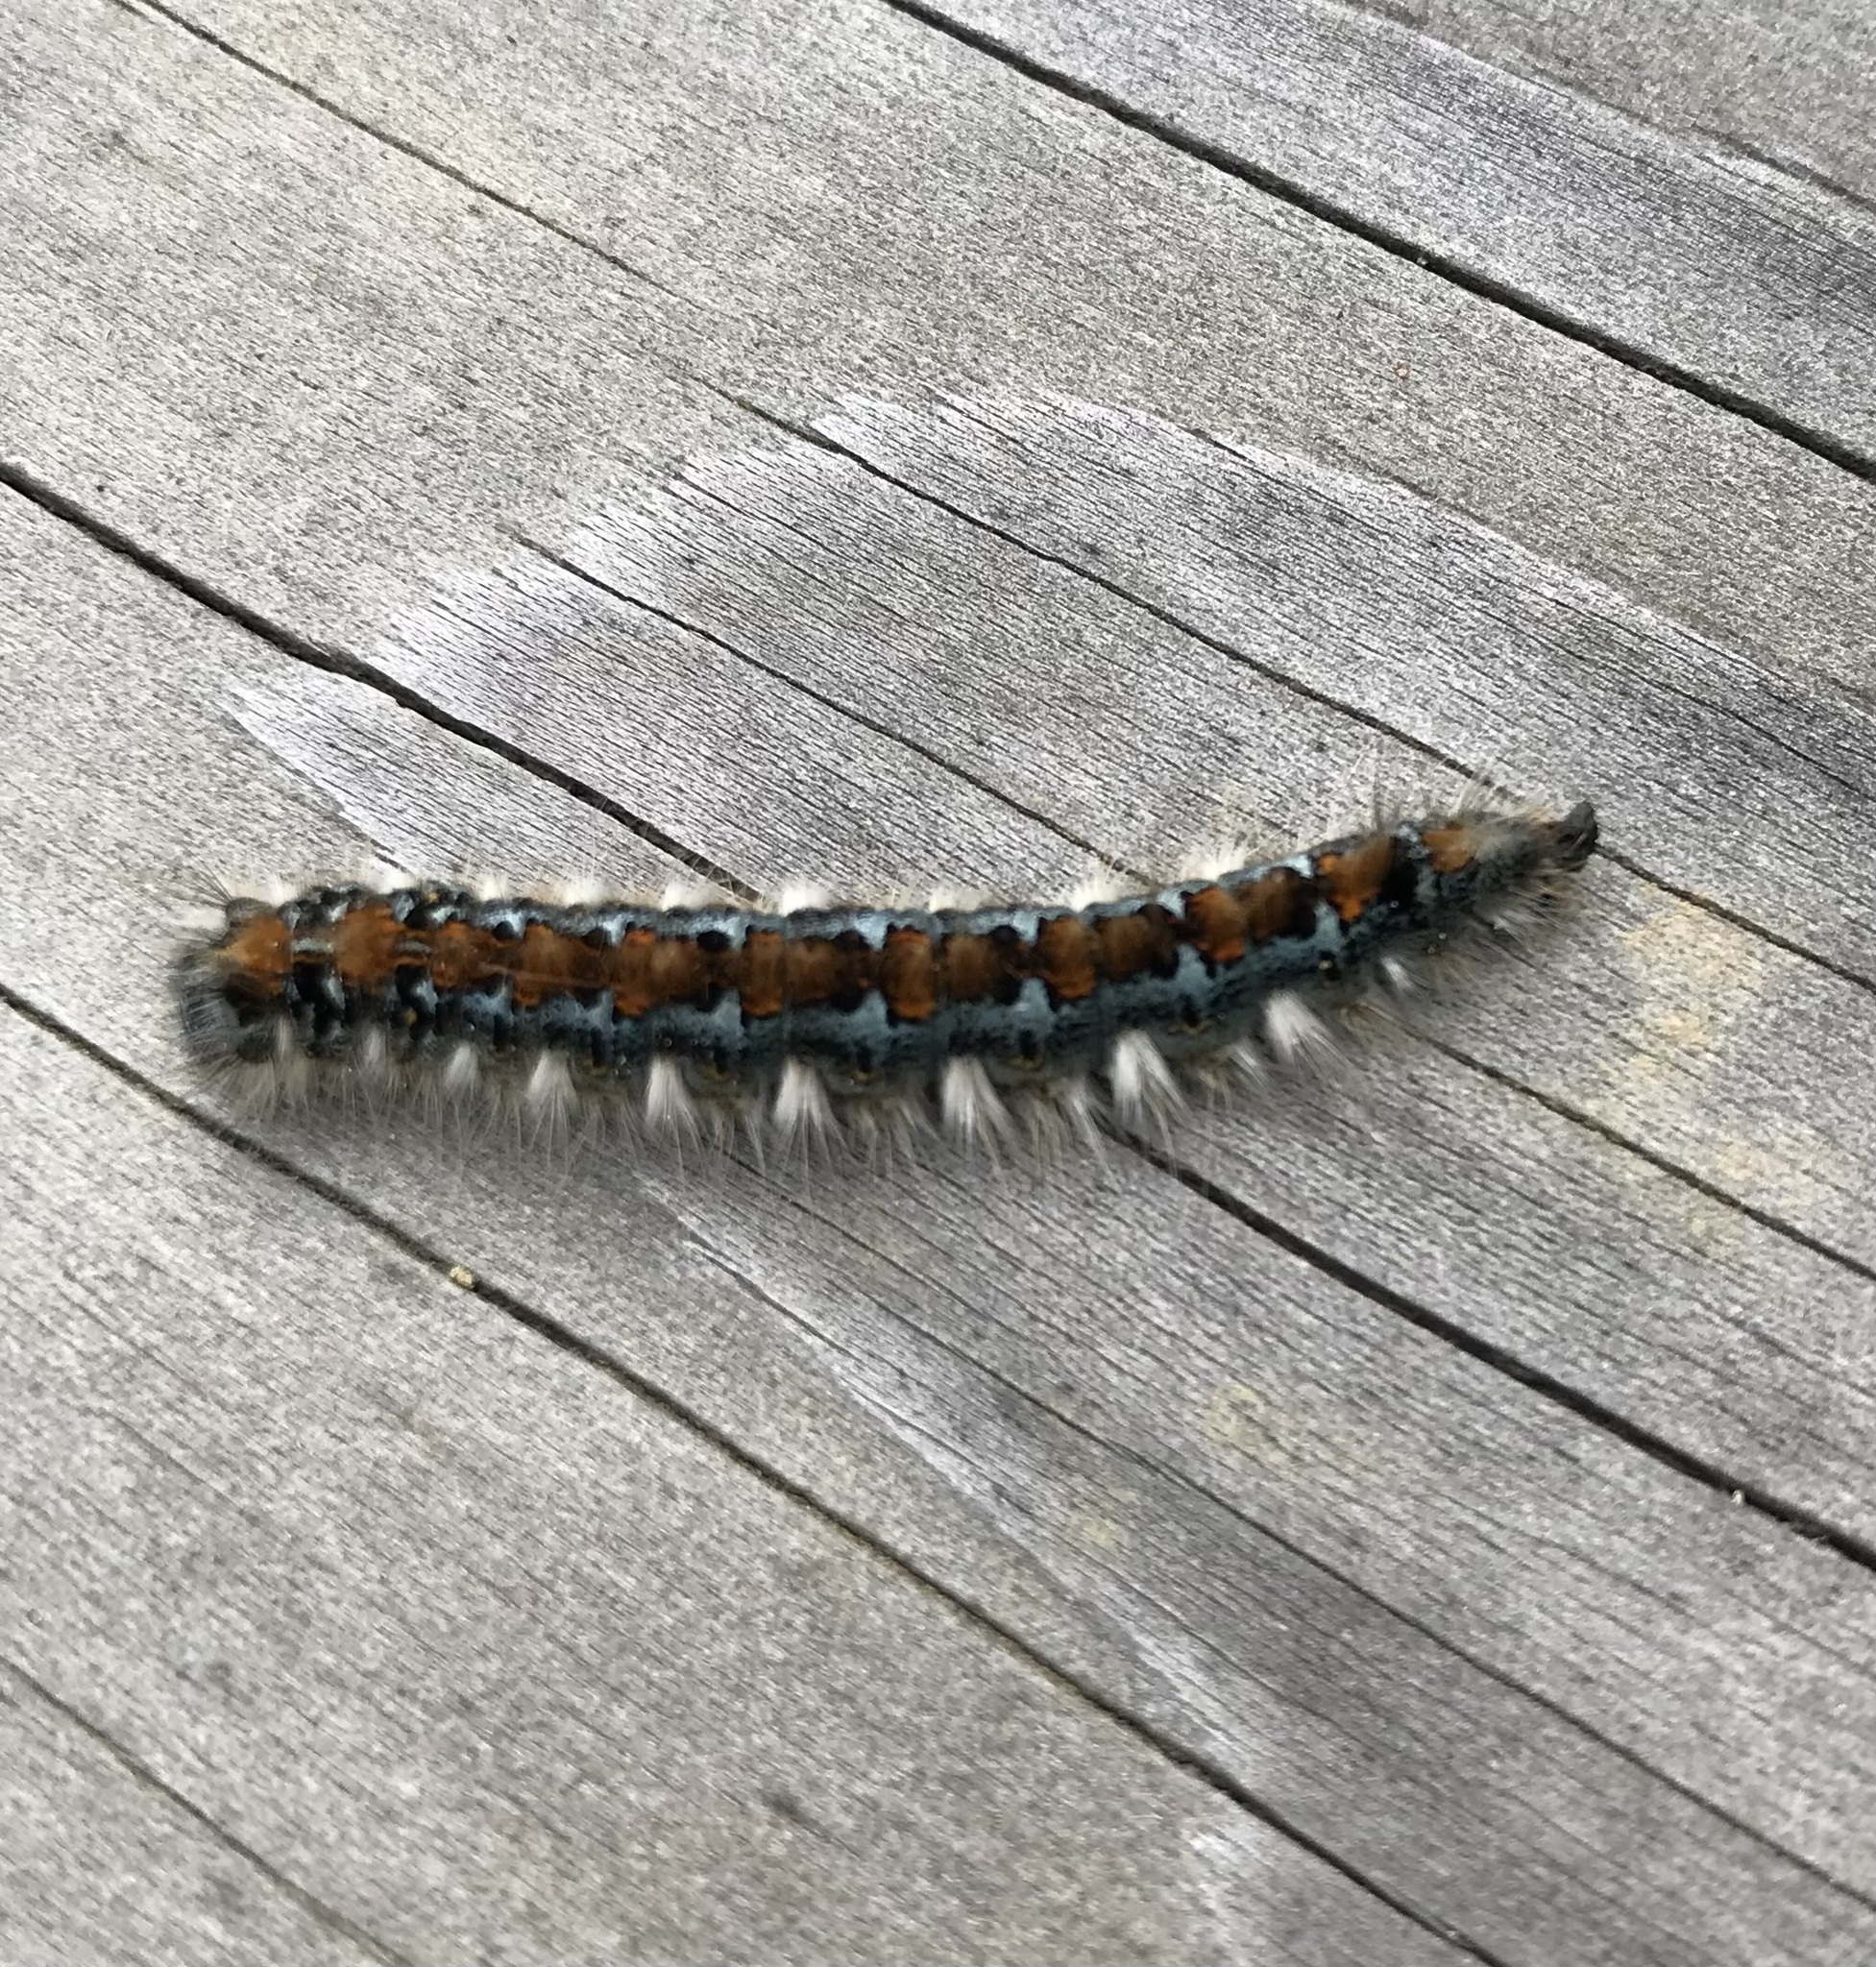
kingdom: Animalia
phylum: Arthropoda
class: Insecta
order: Lepidoptera
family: Lasiocampidae
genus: Malacosoma
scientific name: Malacosoma constricta
